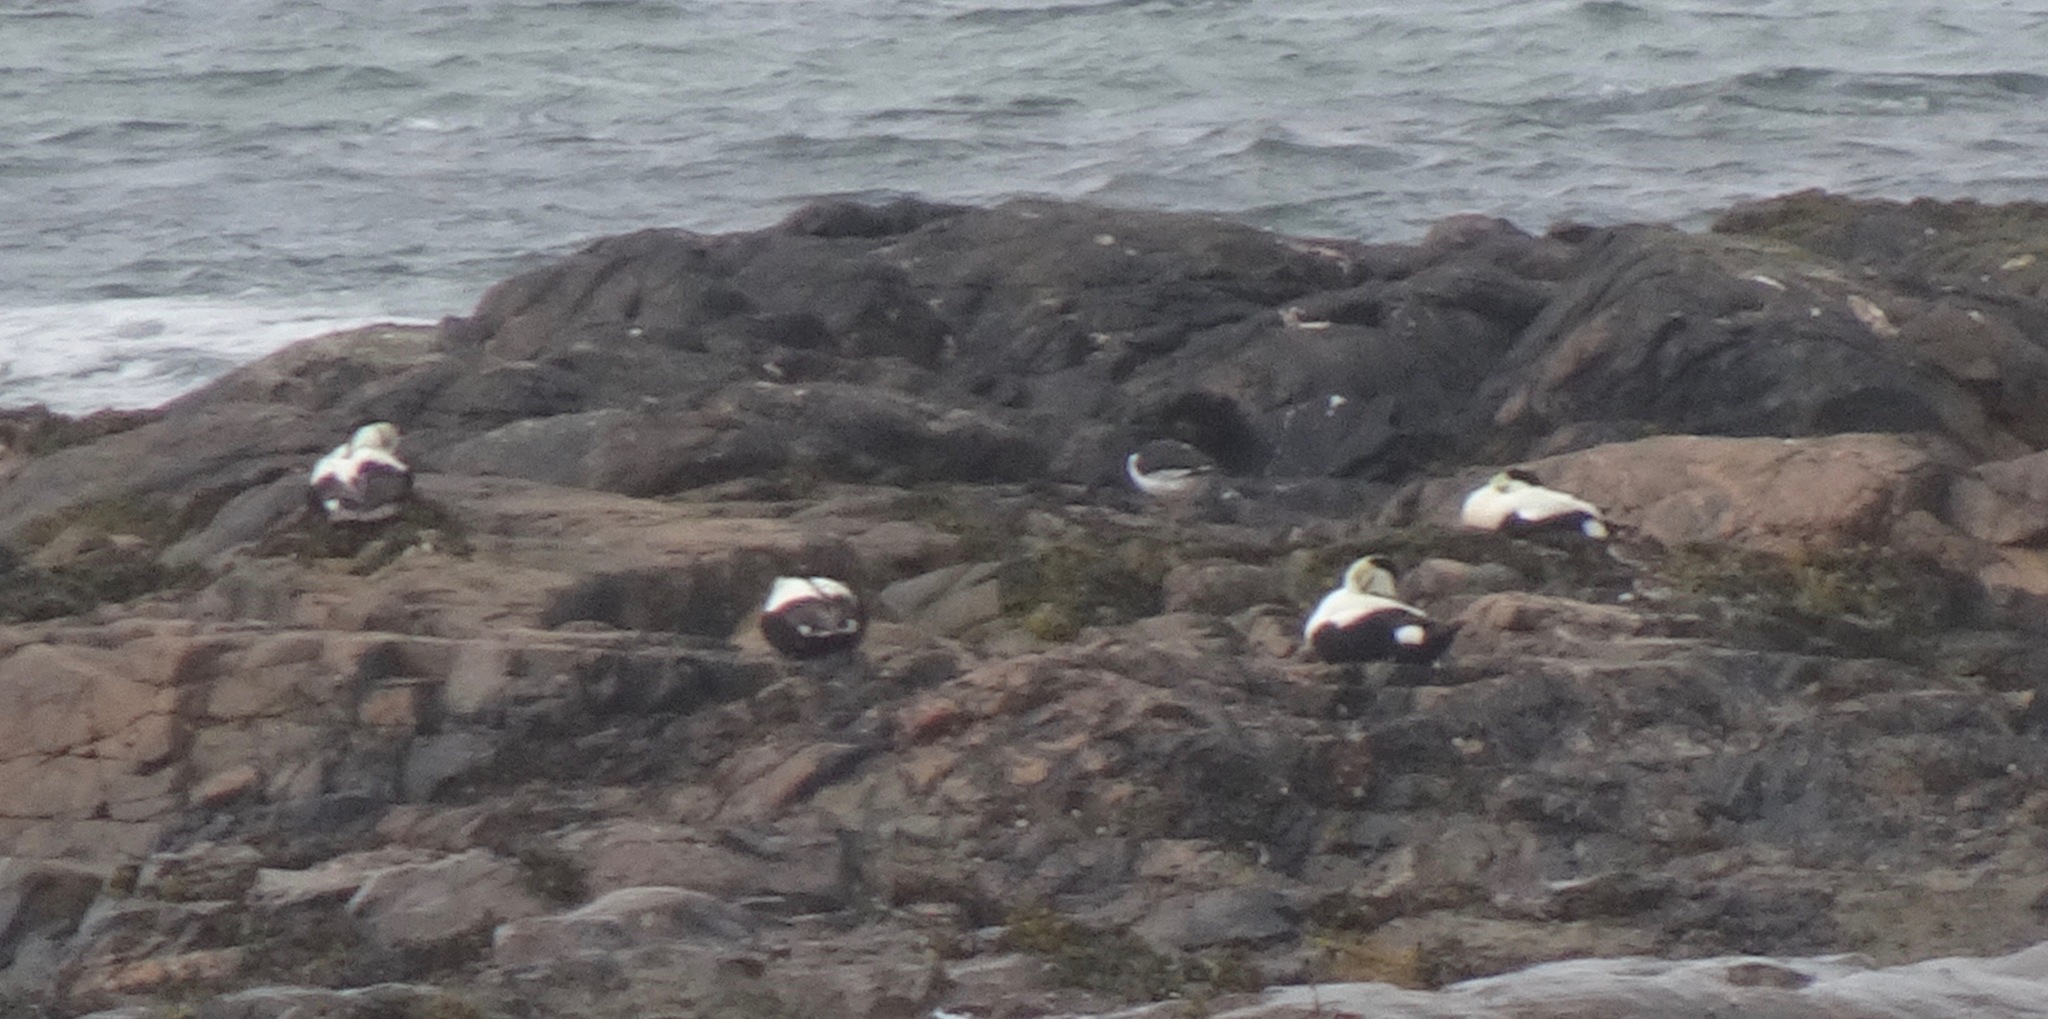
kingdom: Animalia
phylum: Chordata
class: Aves
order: Anseriformes
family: Anatidae
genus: Somateria
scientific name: Somateria mollissima
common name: Common eider
